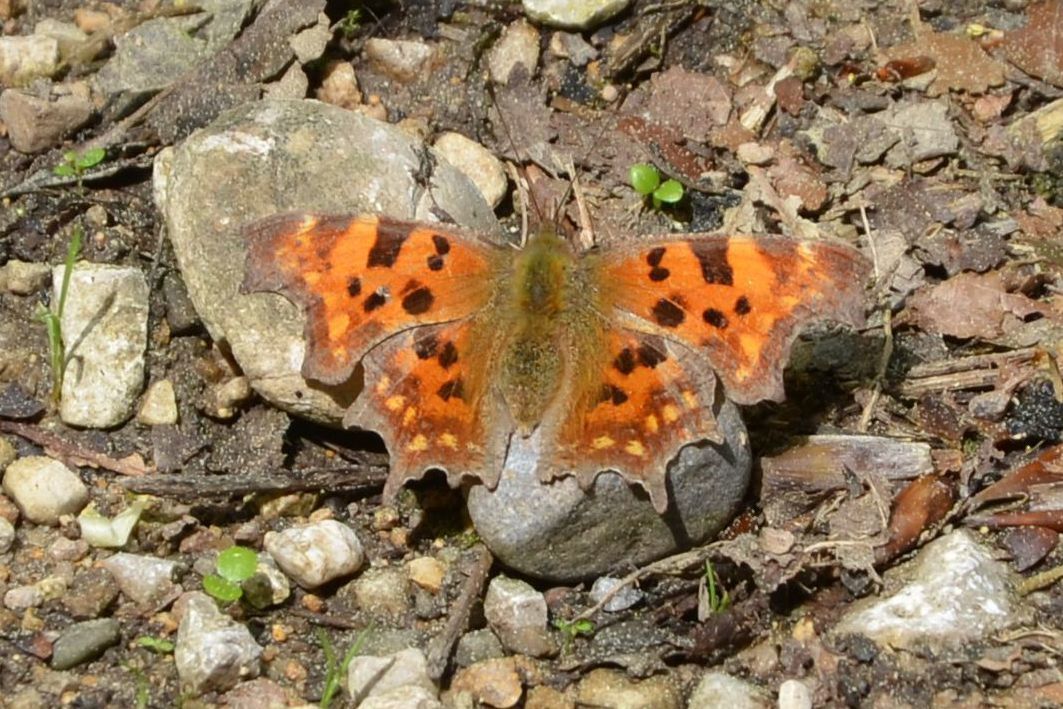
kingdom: Animalia
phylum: Arthropoda
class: Insecta
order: Lepidoptera
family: Nymphalidae
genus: Polygonia
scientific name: Polygonia c-album
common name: Comma
